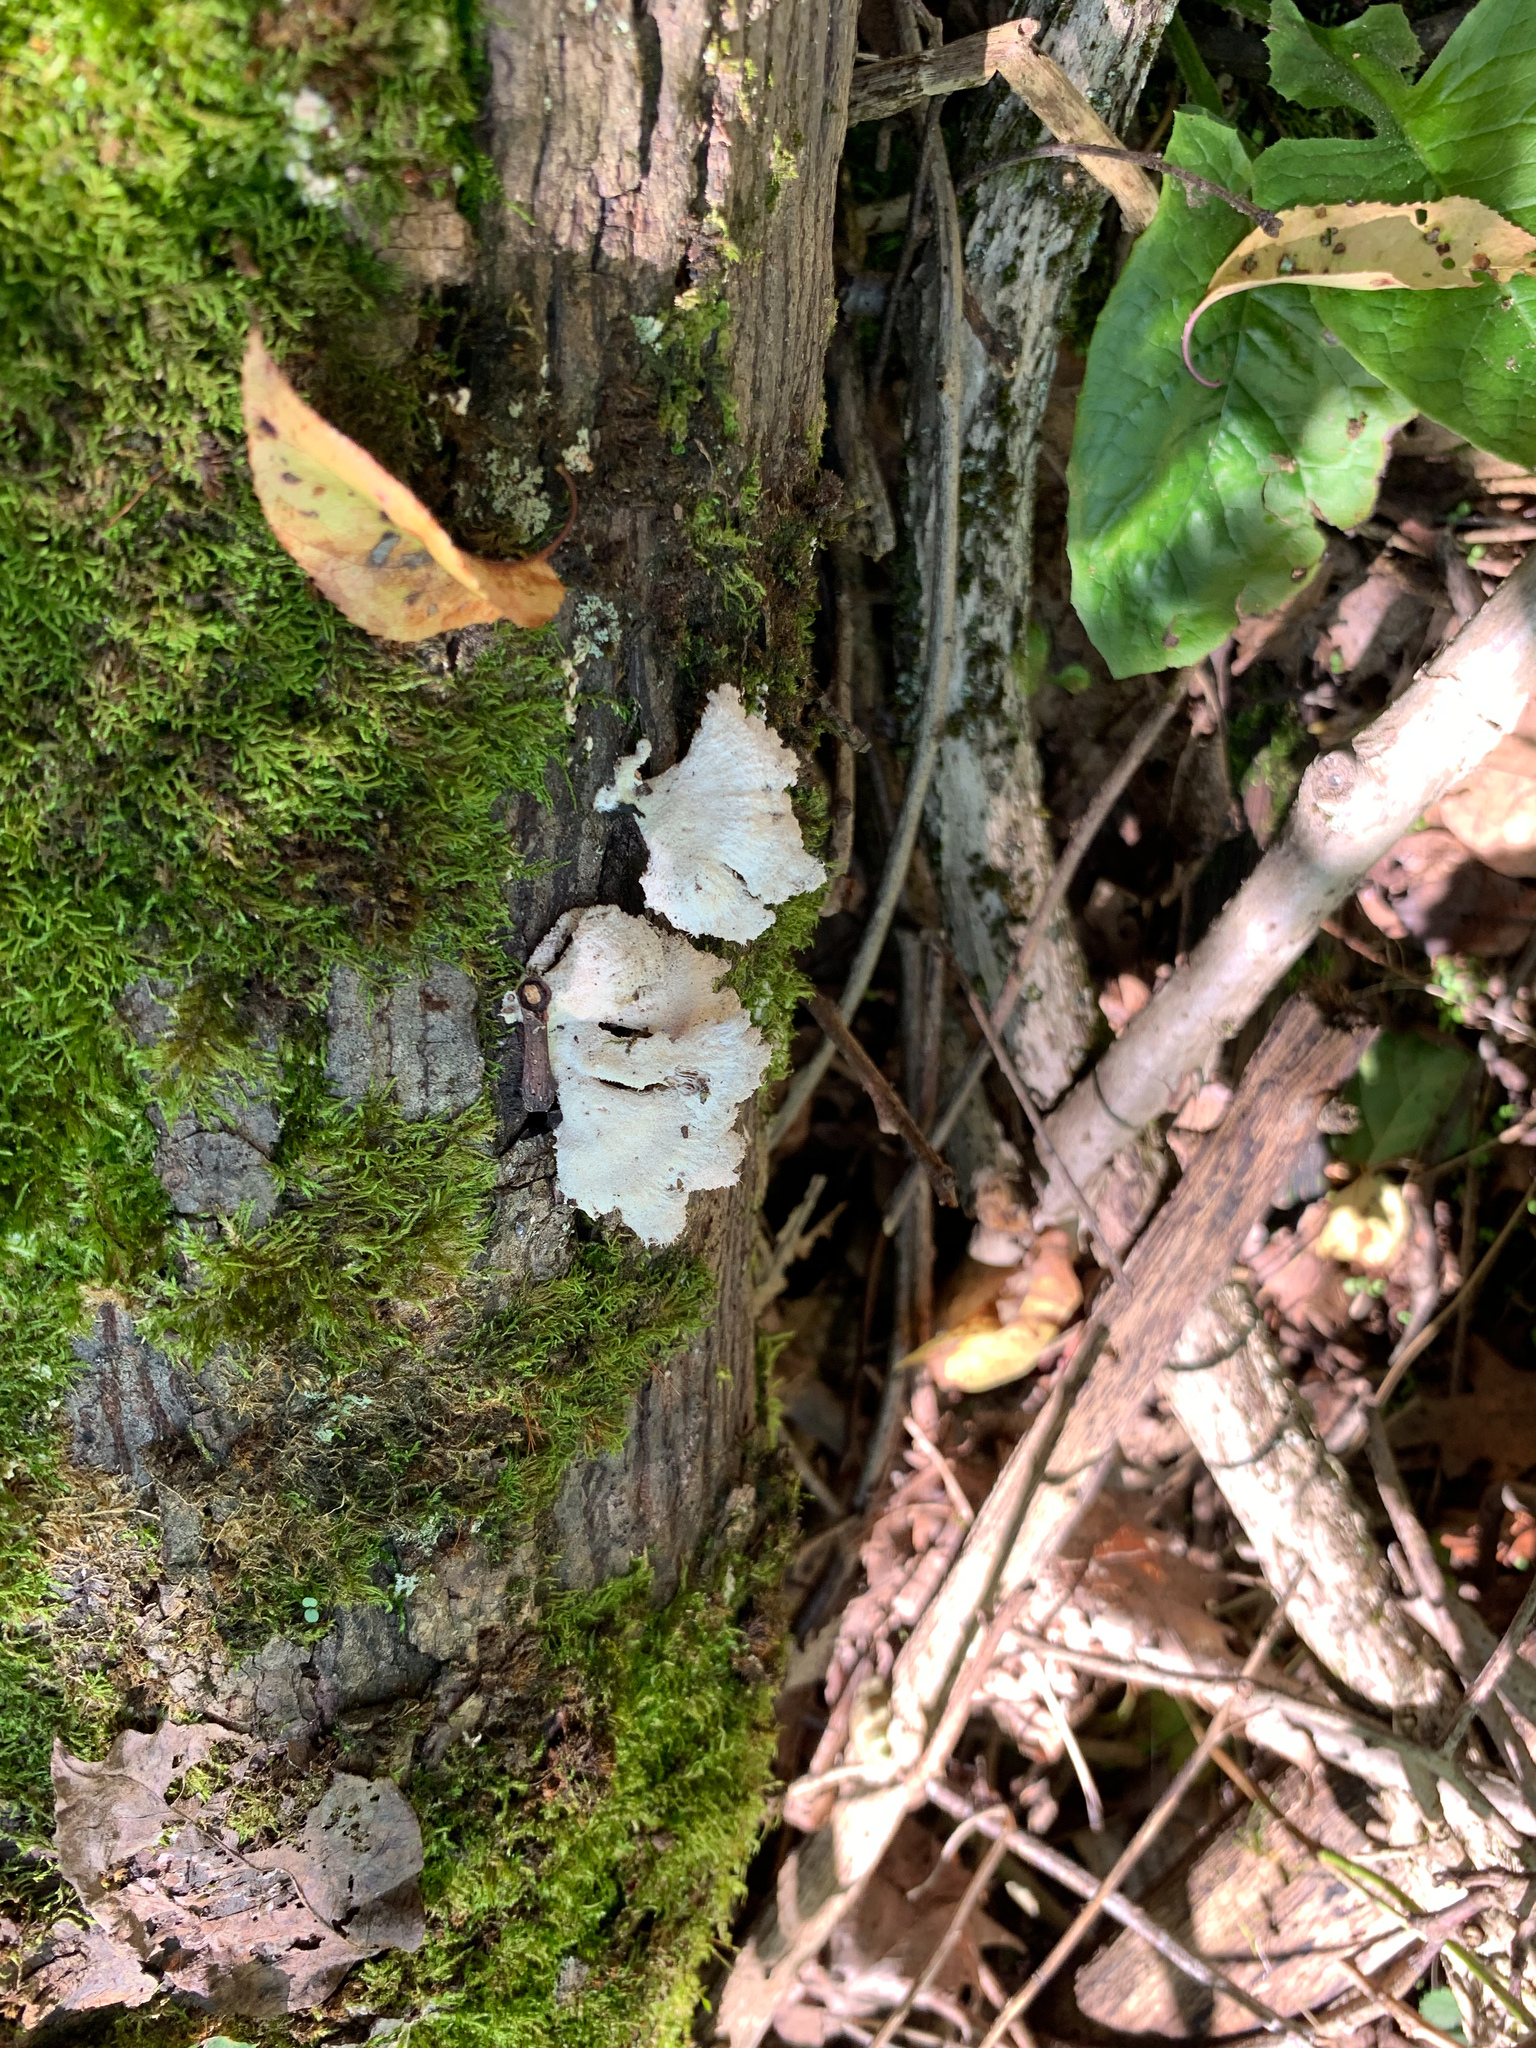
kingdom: Fungi
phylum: Basidiomycota
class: Agaricomycetes
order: Agaricales
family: Schizophyllaceae
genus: Schizophyllum
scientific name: Schizophyllum commune
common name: Common porecrust
